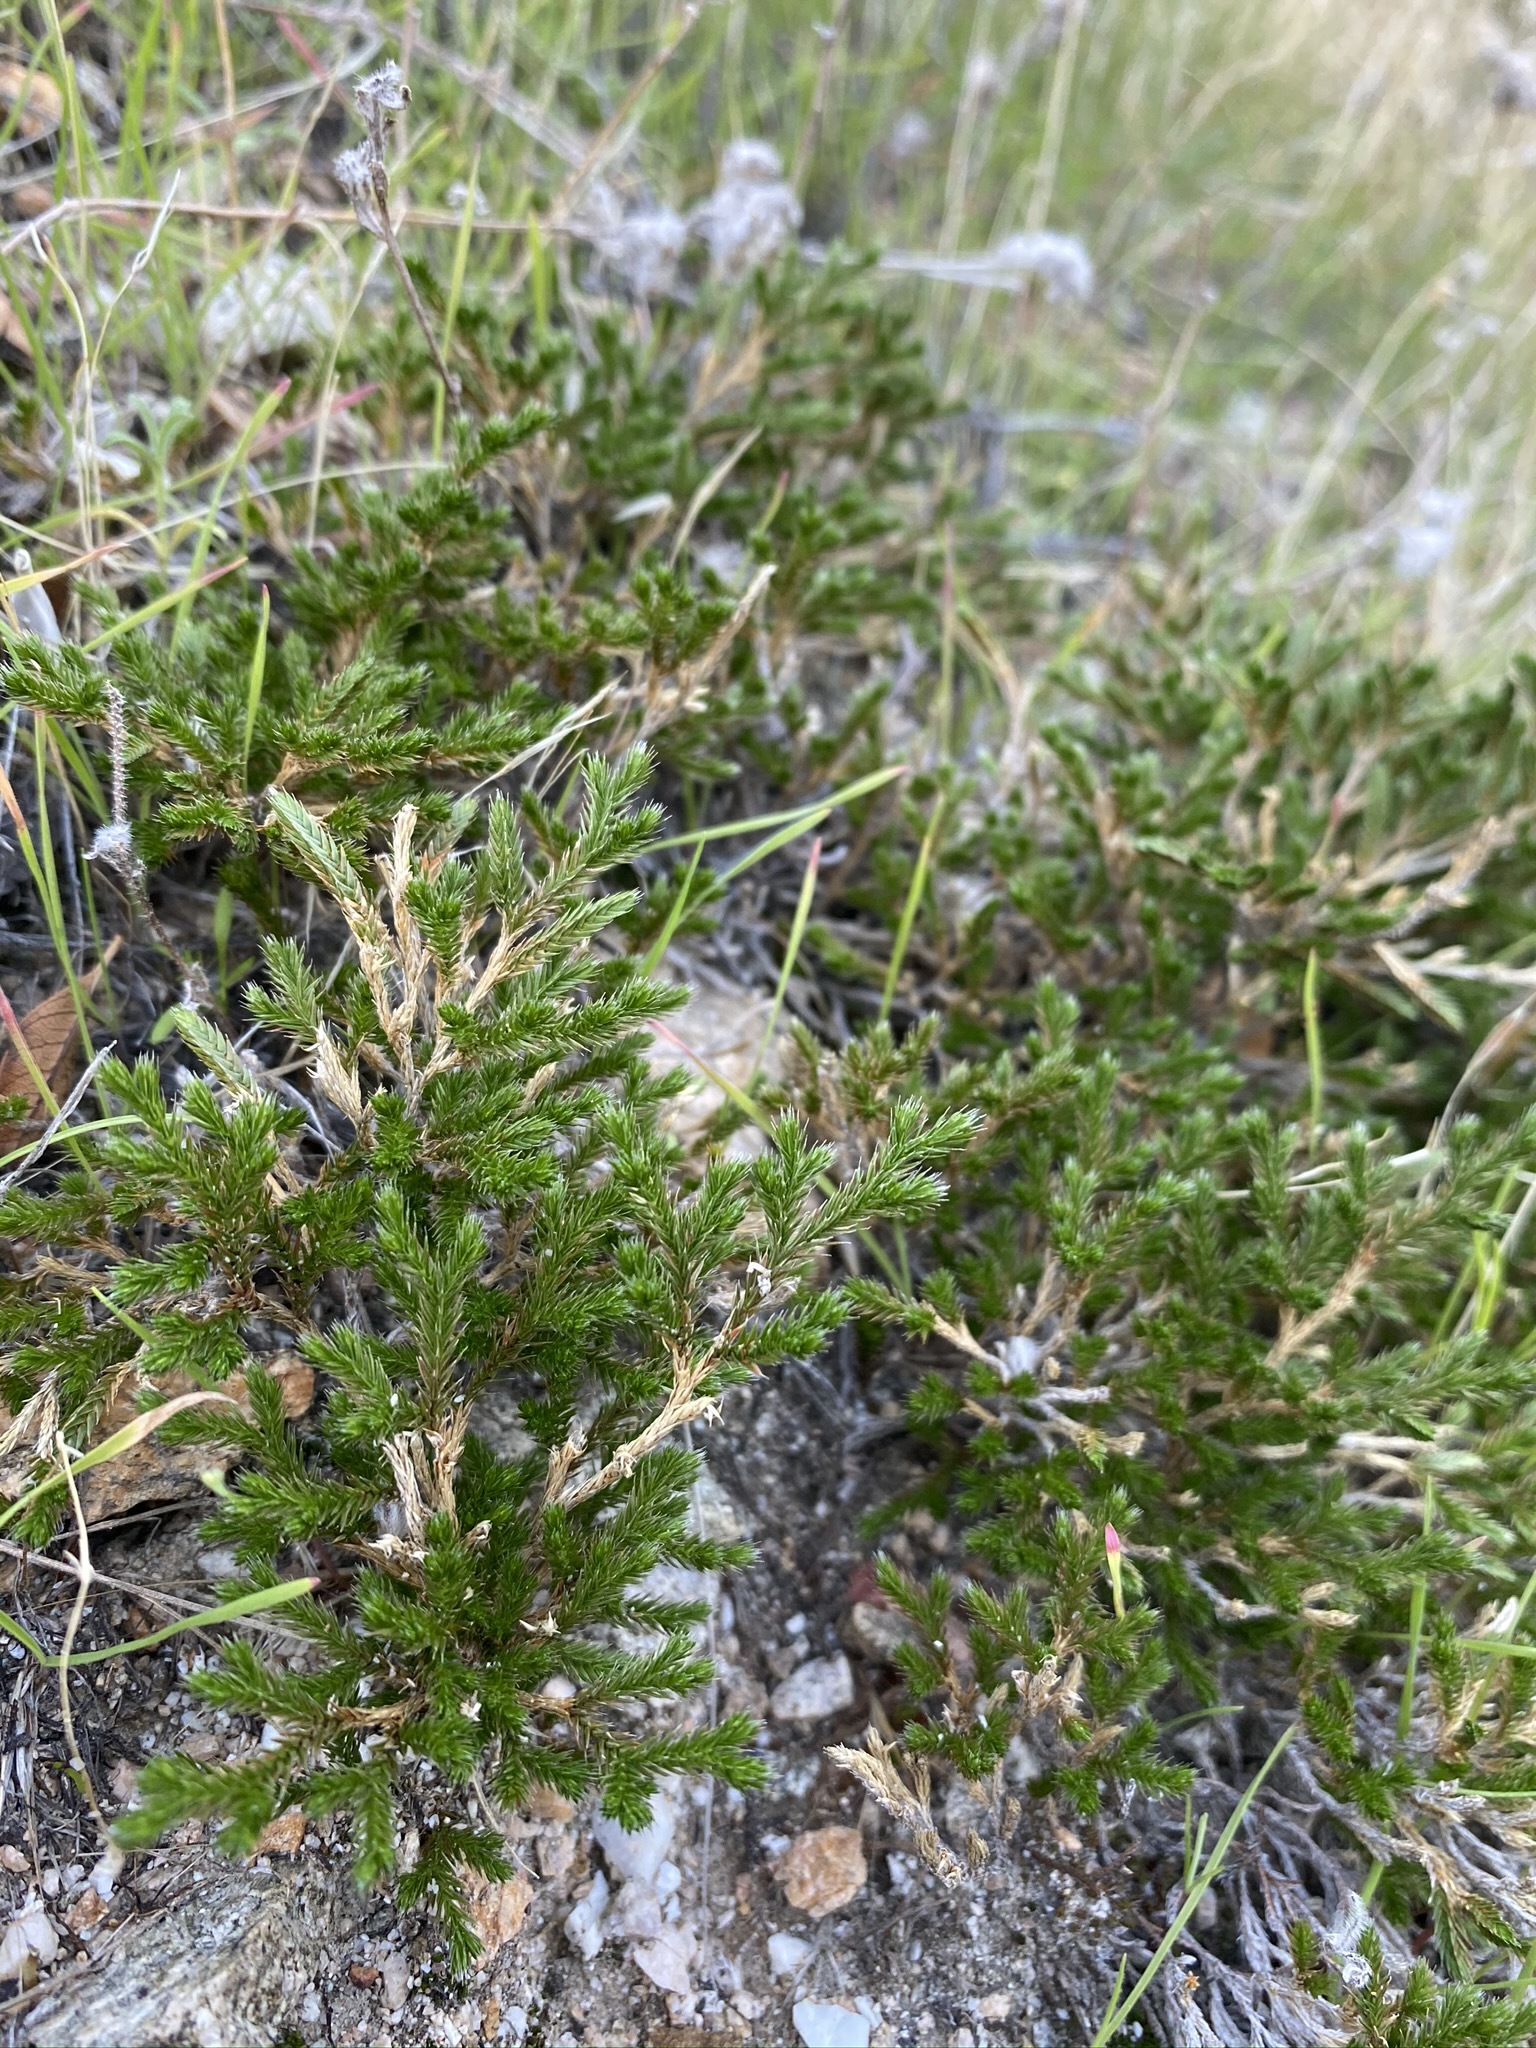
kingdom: Plantae
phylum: Tracheophyta
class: Lycopodiopsida
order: Selaginellales
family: Selaginellaceae
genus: Selaginella
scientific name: Selaginella bigelovii
